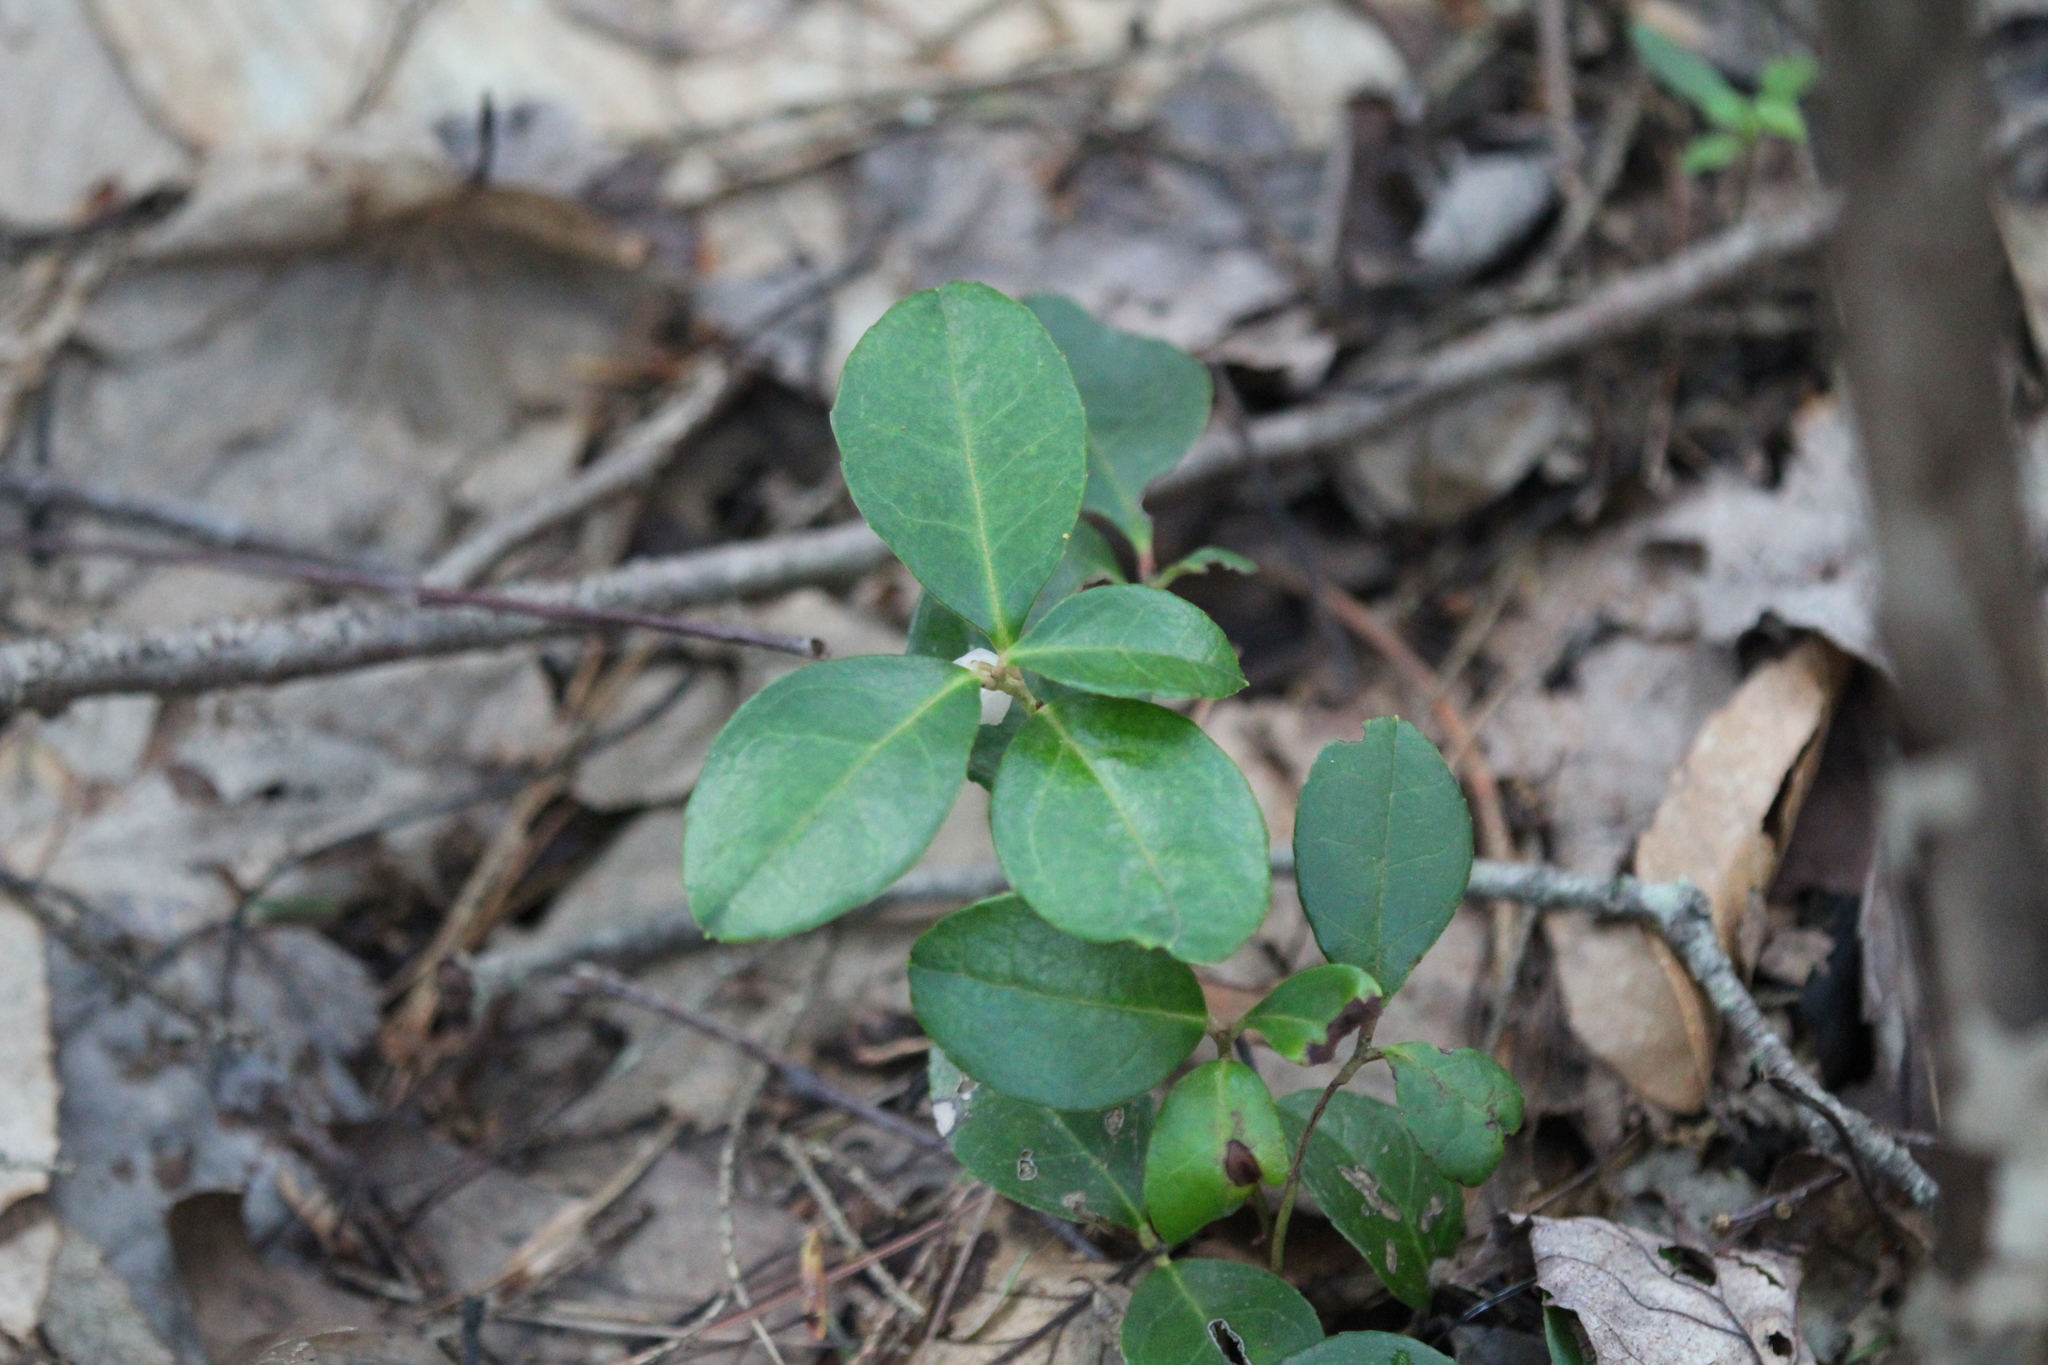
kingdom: Plantae
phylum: Tracheophyta
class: Magnoliopsida
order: Ericales
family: Ericaceae
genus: Gaultheria
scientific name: Gaultheria procumbens
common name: Checkerberry
